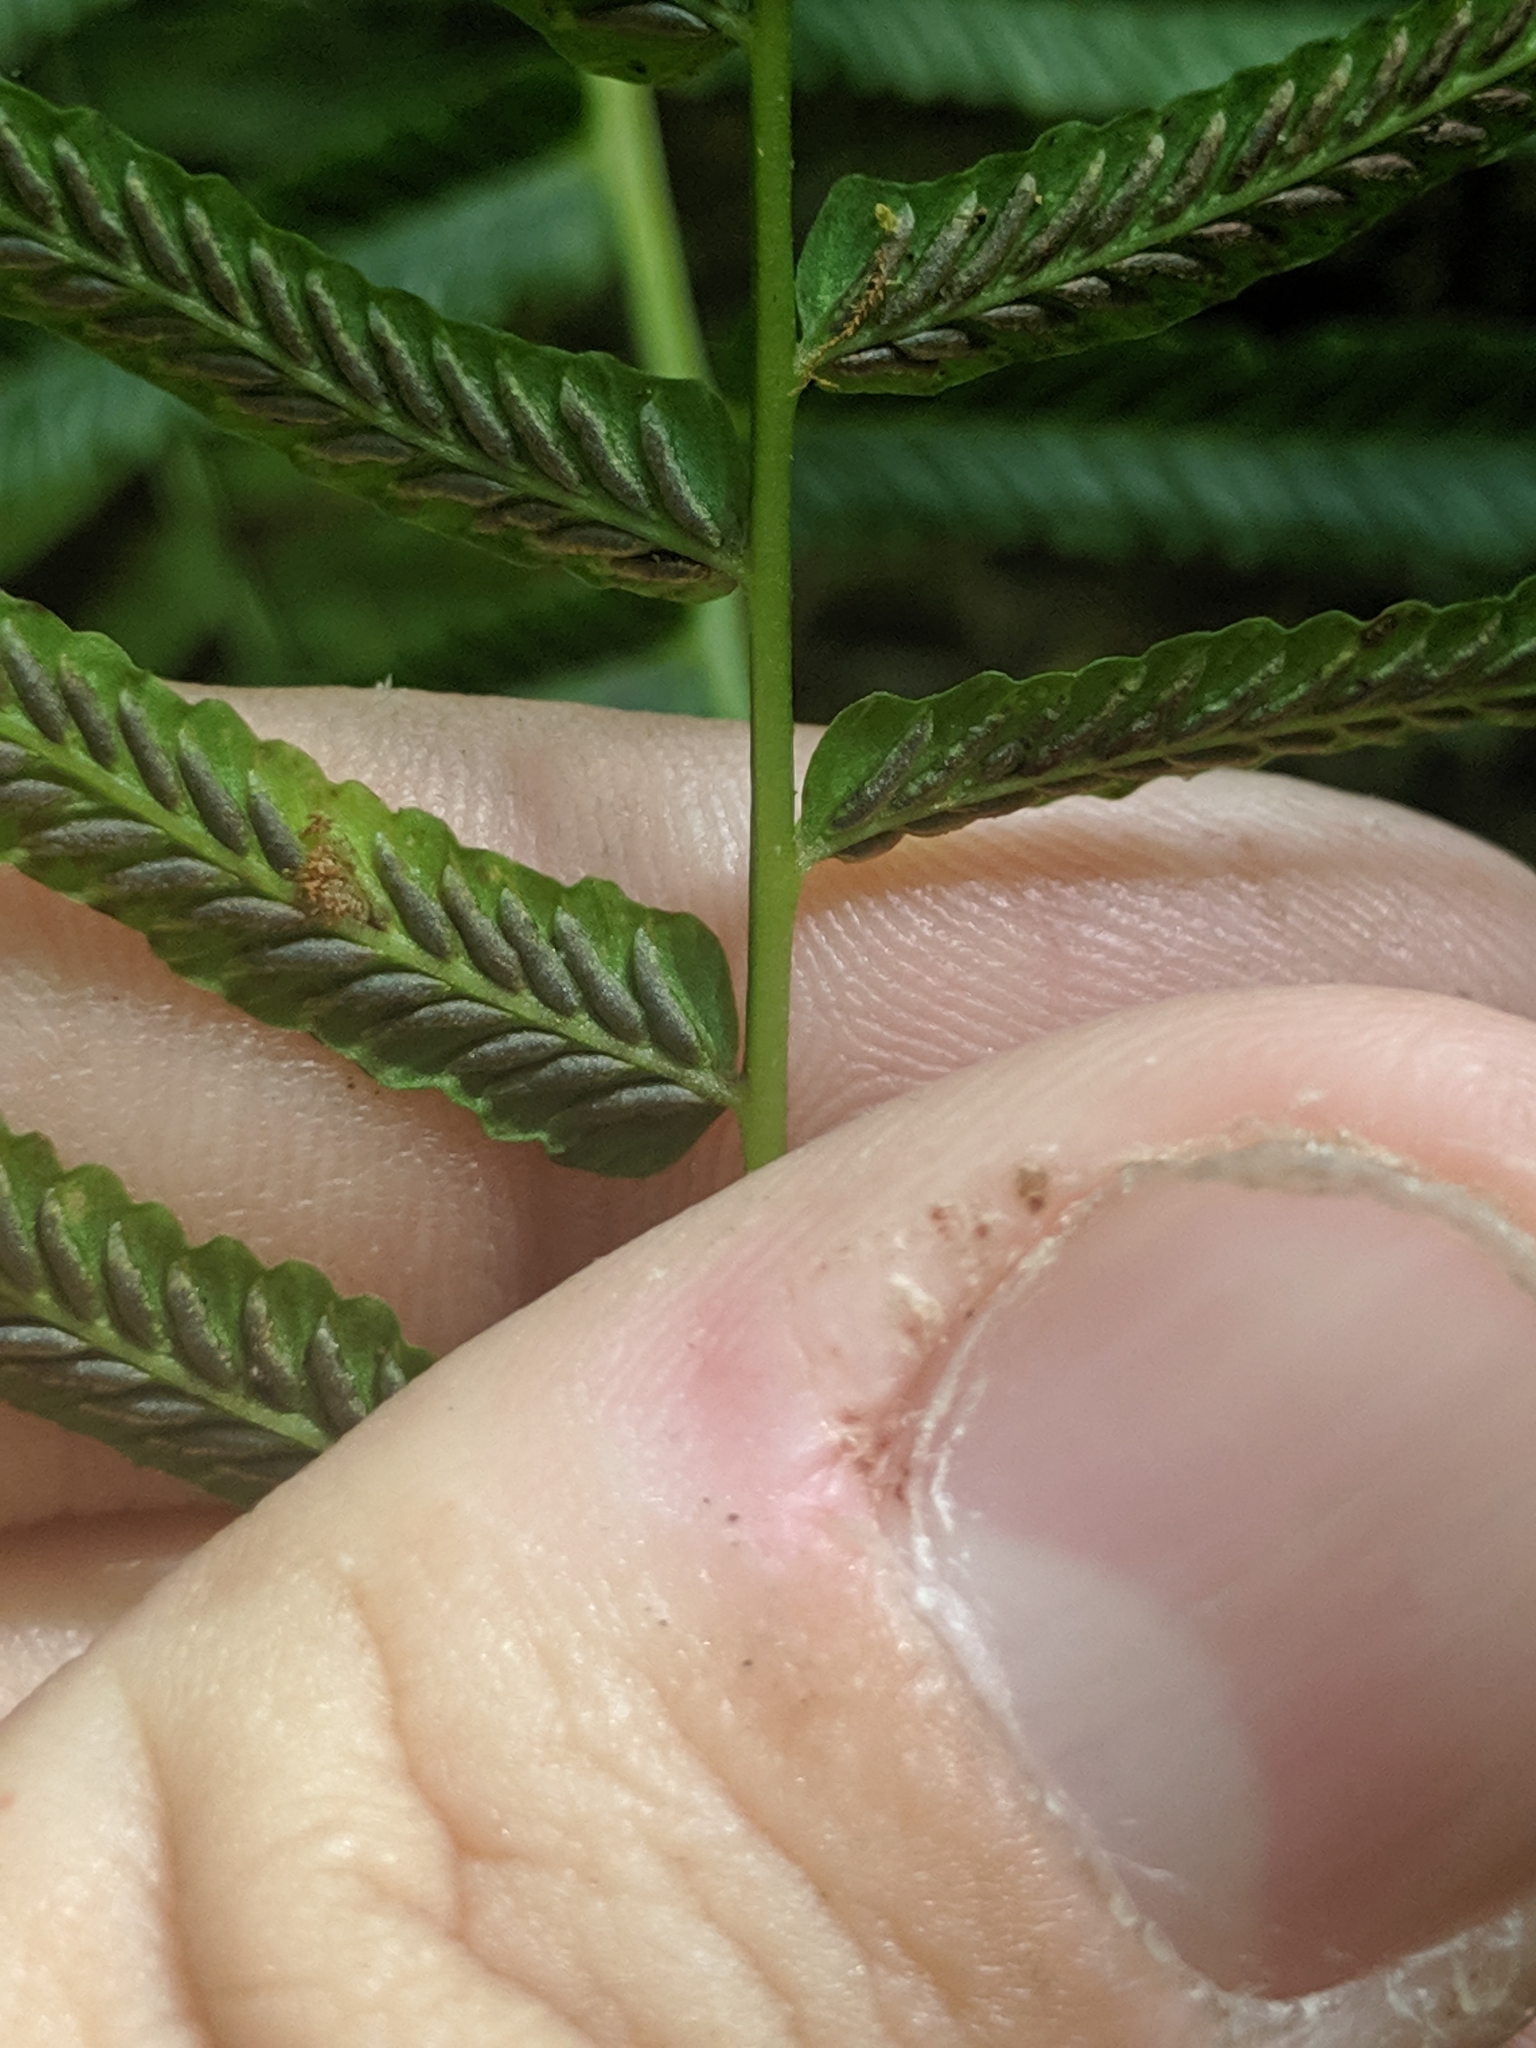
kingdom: Plantae
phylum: Tracheophyta
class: Polypodiopsida
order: Polypodiales
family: Diplaziopsidaceae
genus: Homalosorus
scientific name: Homalosorus pycnocarpos
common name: Glade fern
